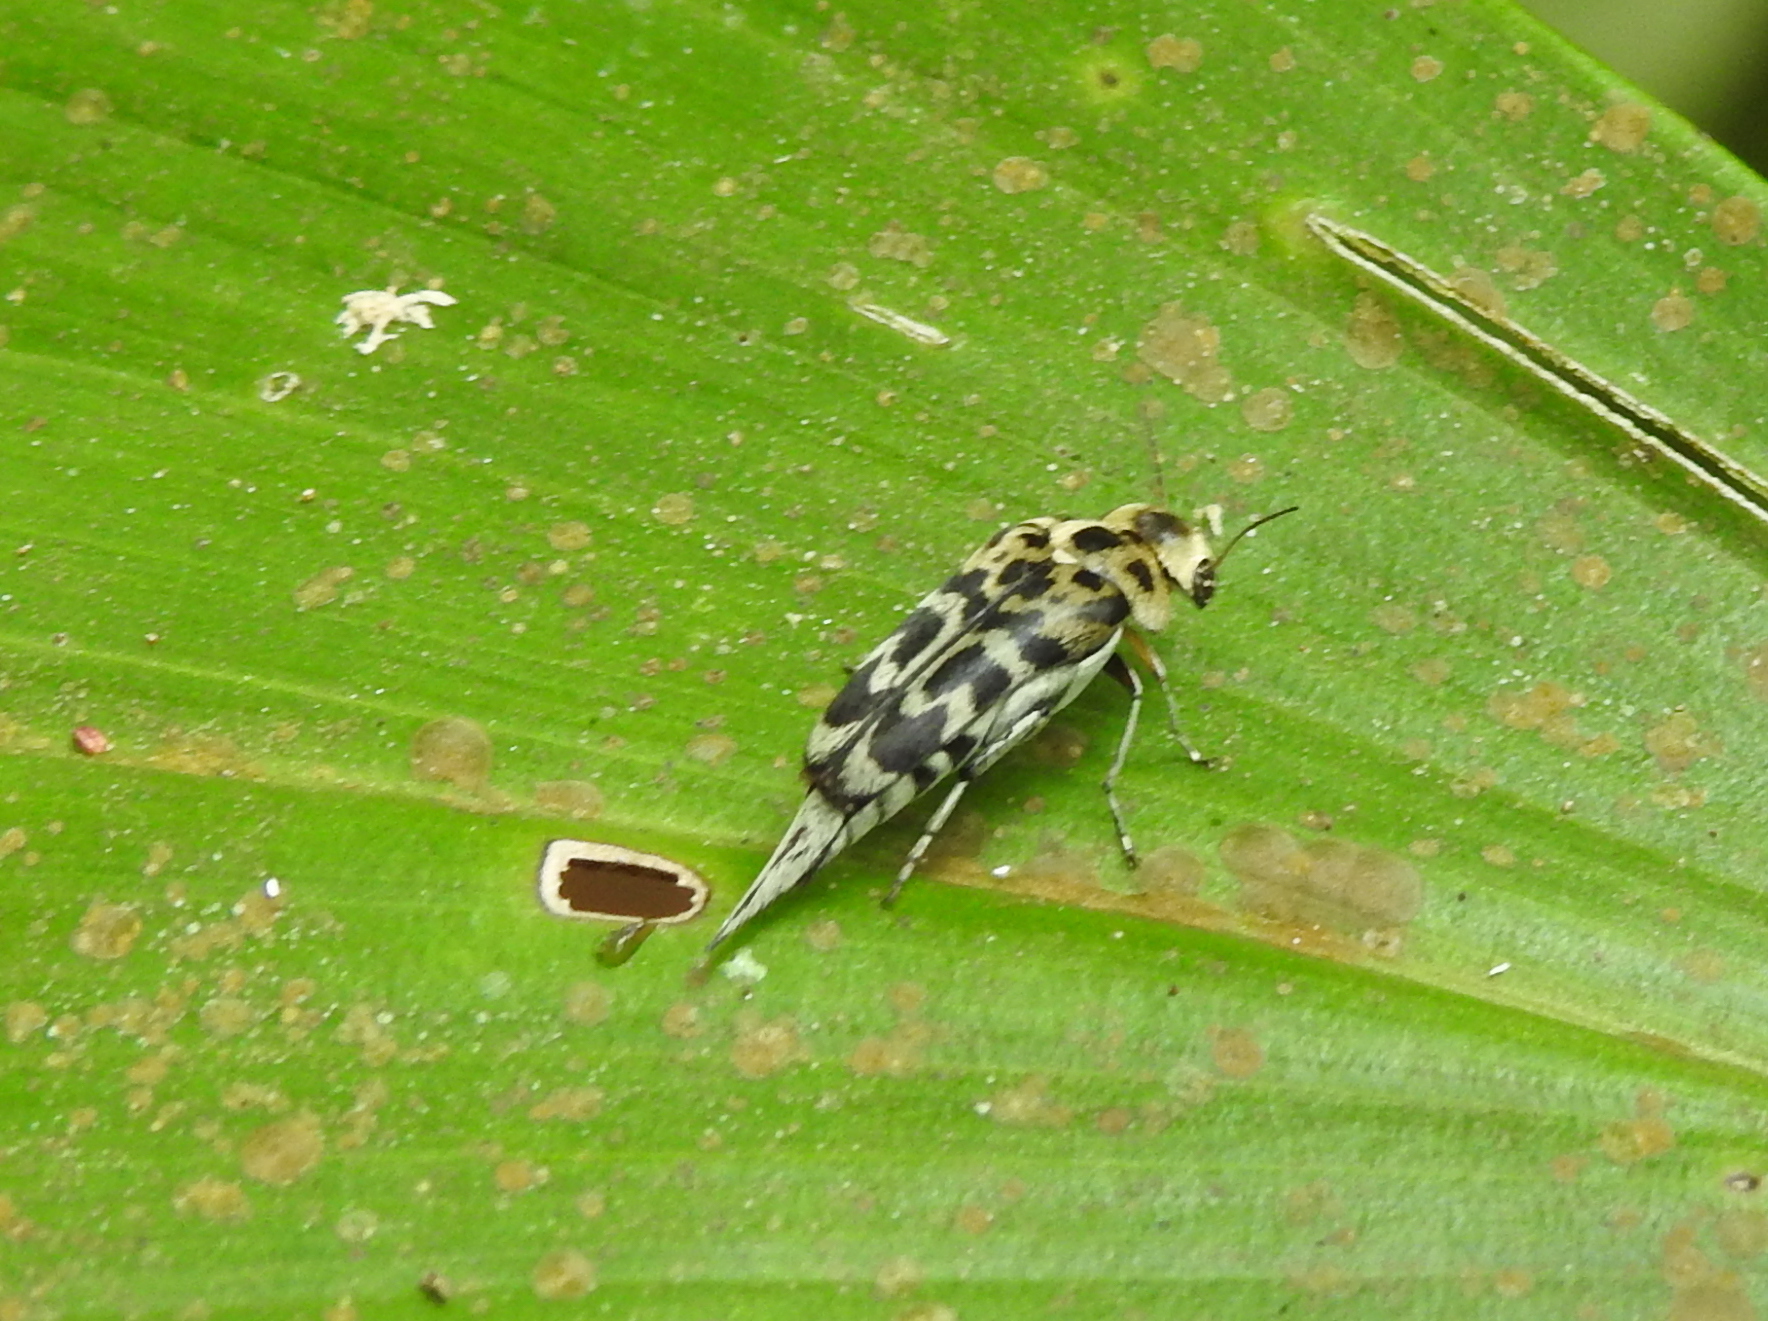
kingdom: Animalia
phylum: Arthropoda
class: Insecta
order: Coleoptera
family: Mordellidae
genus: Glipa
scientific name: Glipa
